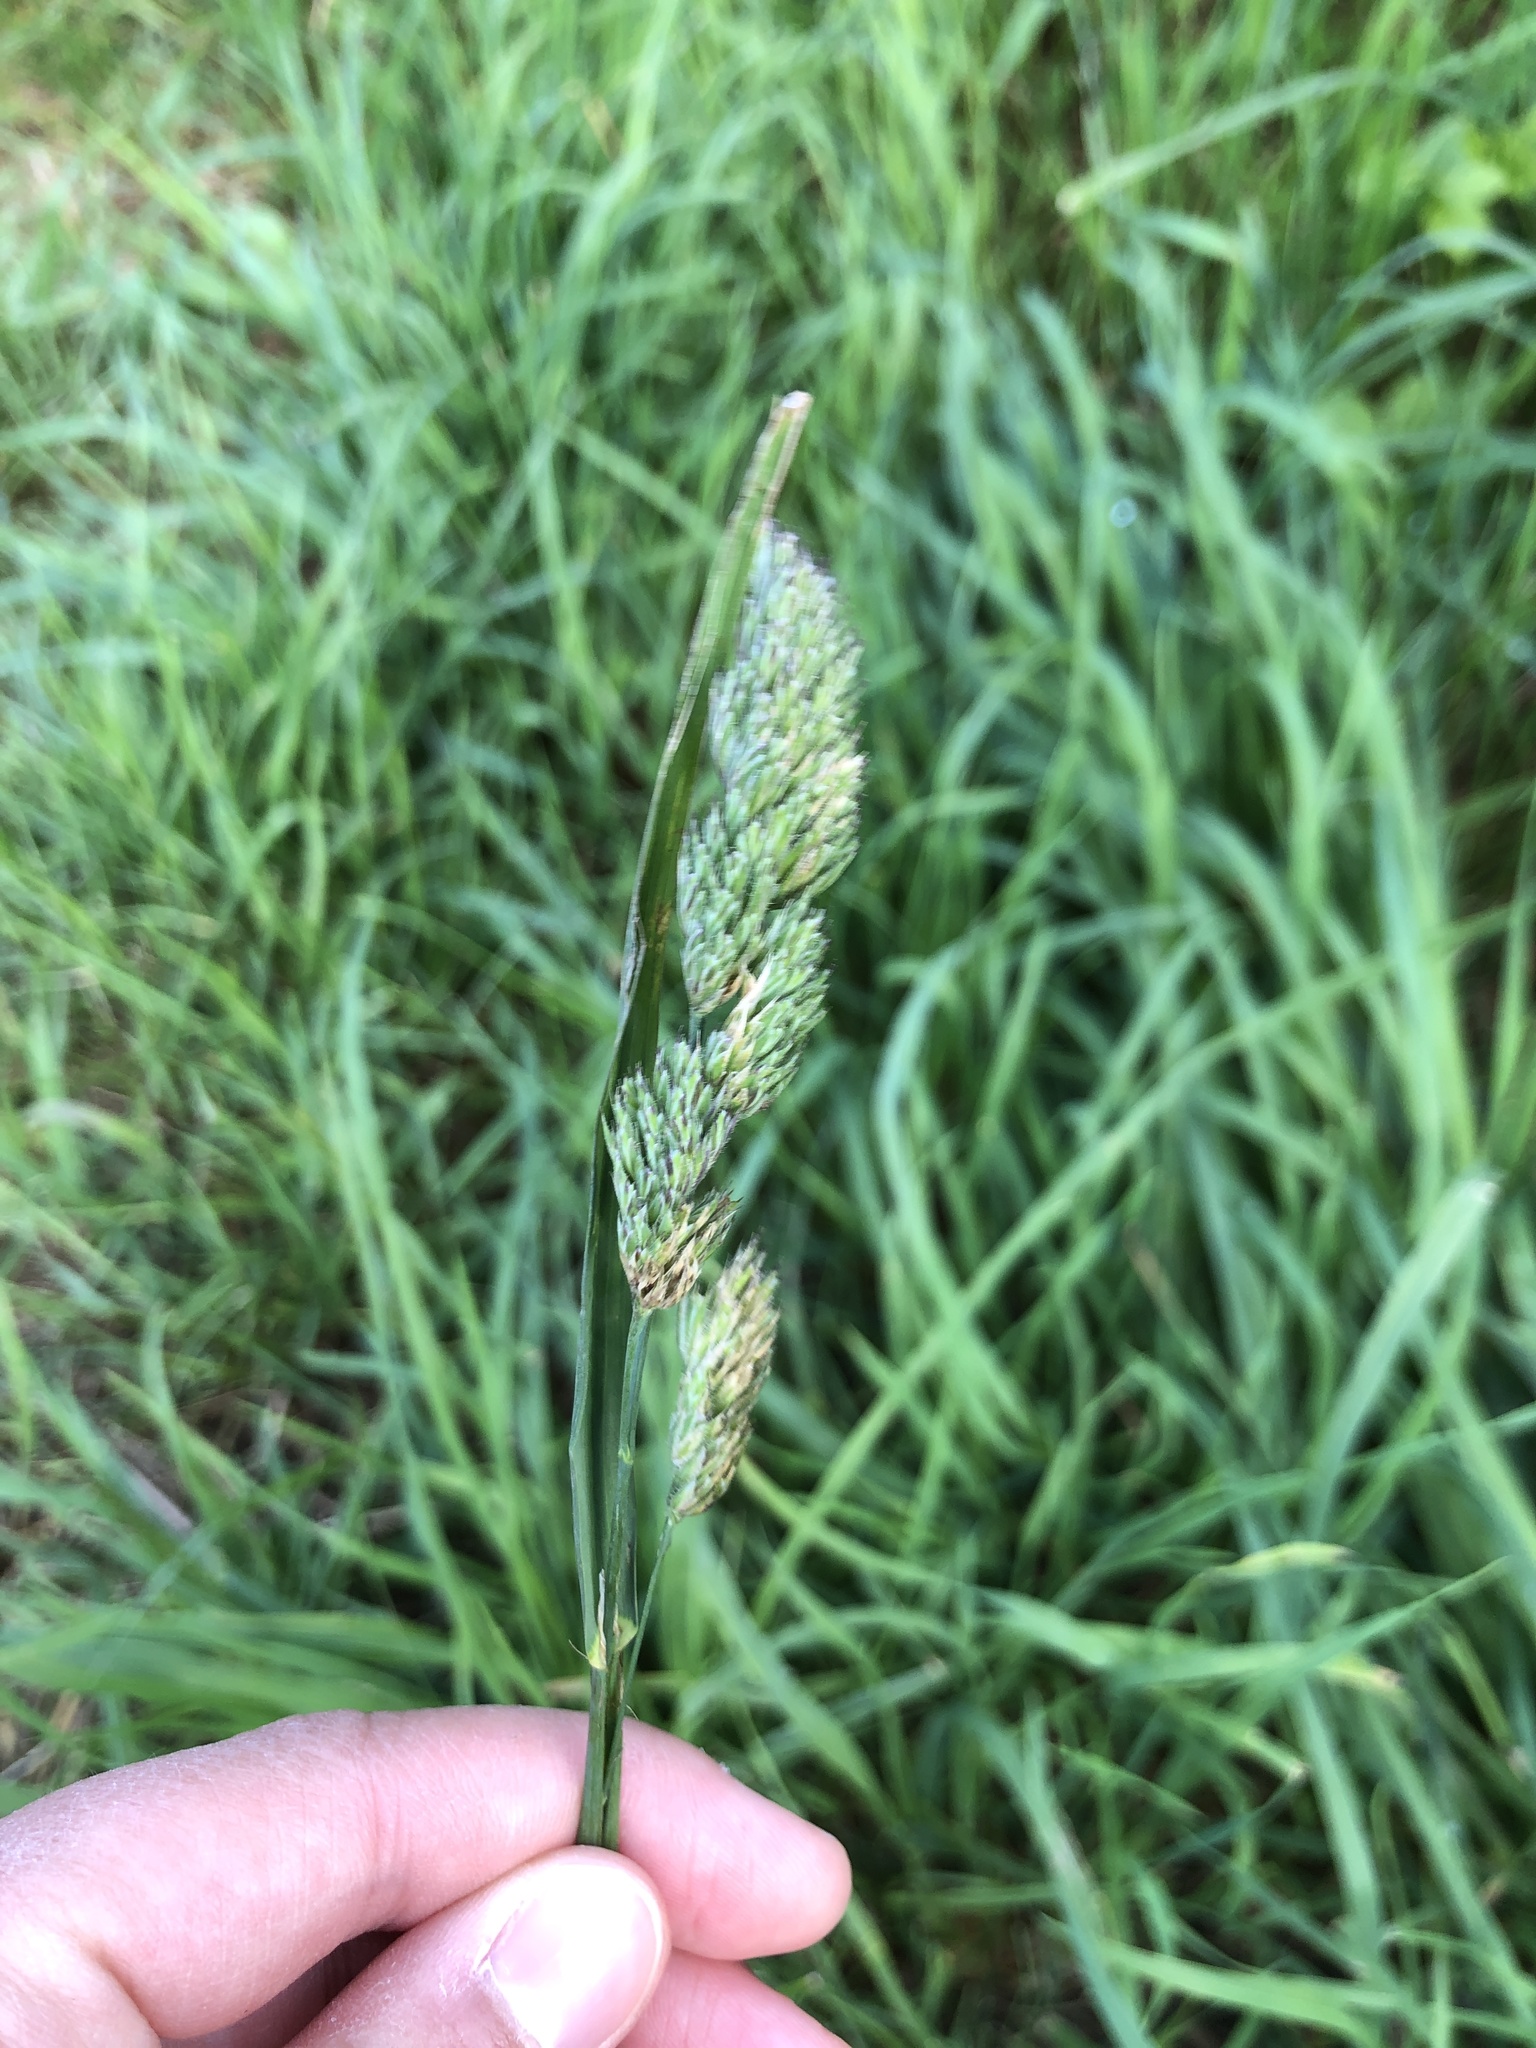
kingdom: Plantae
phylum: Tracheophyta
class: Liliopsida
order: Poales
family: Poaceae
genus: Dactylis
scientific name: Dactylis glomerata
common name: Orchardgrass
